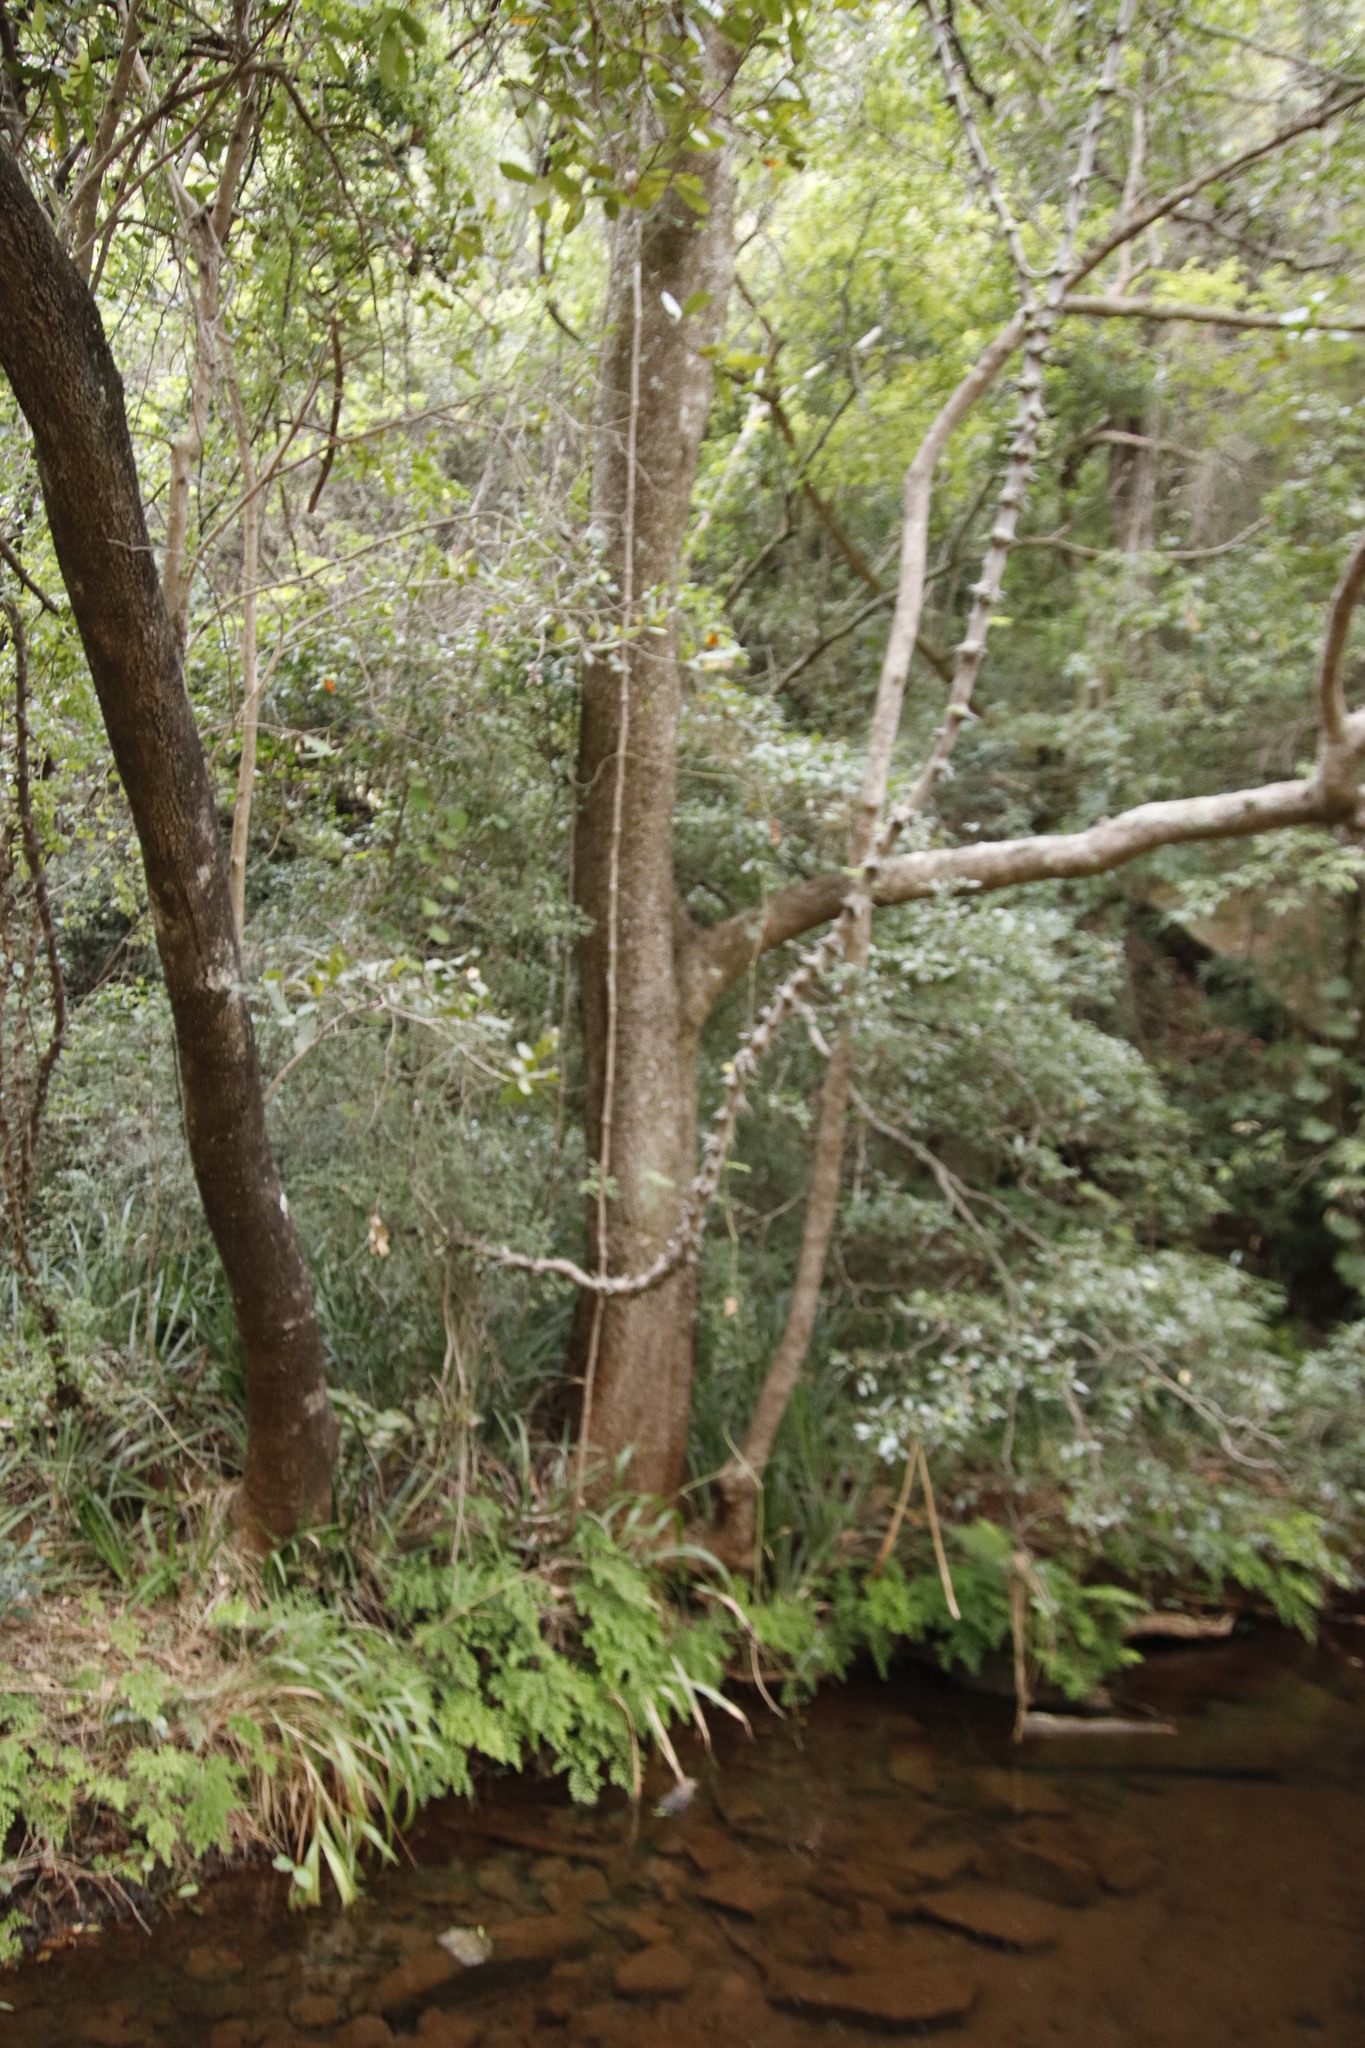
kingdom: Plantae
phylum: Tracheophyta
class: Magnoliopsida
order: Fabales
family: Fabaceae
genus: Dalbergia
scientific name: Dalbergia armata
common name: Hluhluwe climber
